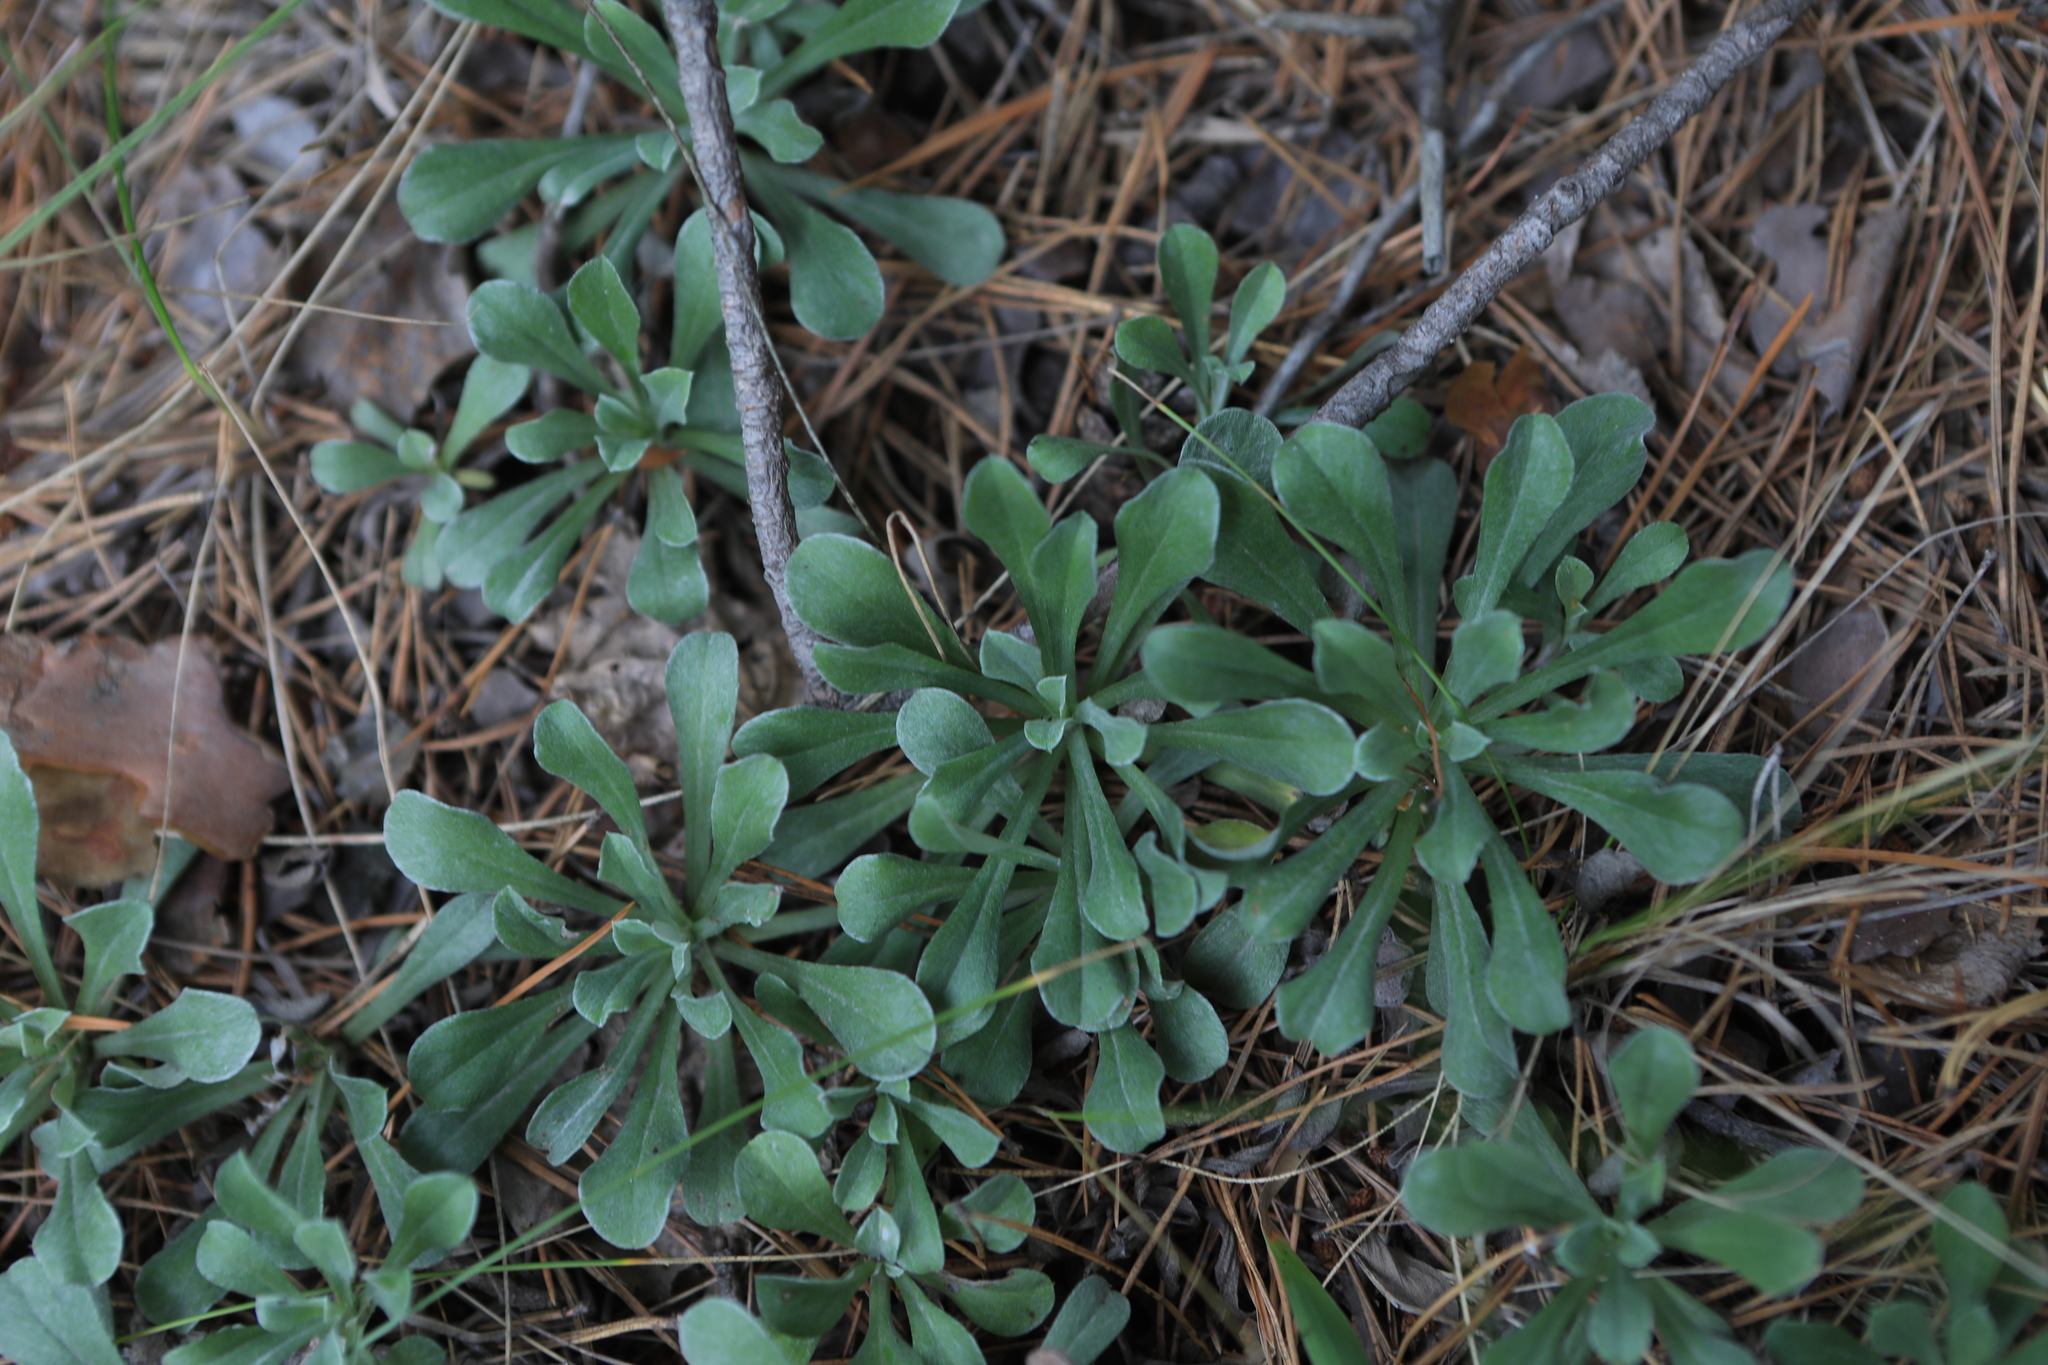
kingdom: Plantae
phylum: Tracheophyta
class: Magnoliopsida
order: Asterales
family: Asteraceae
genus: Antennaria
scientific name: Antennaria dioica
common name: Mountain everlasting
